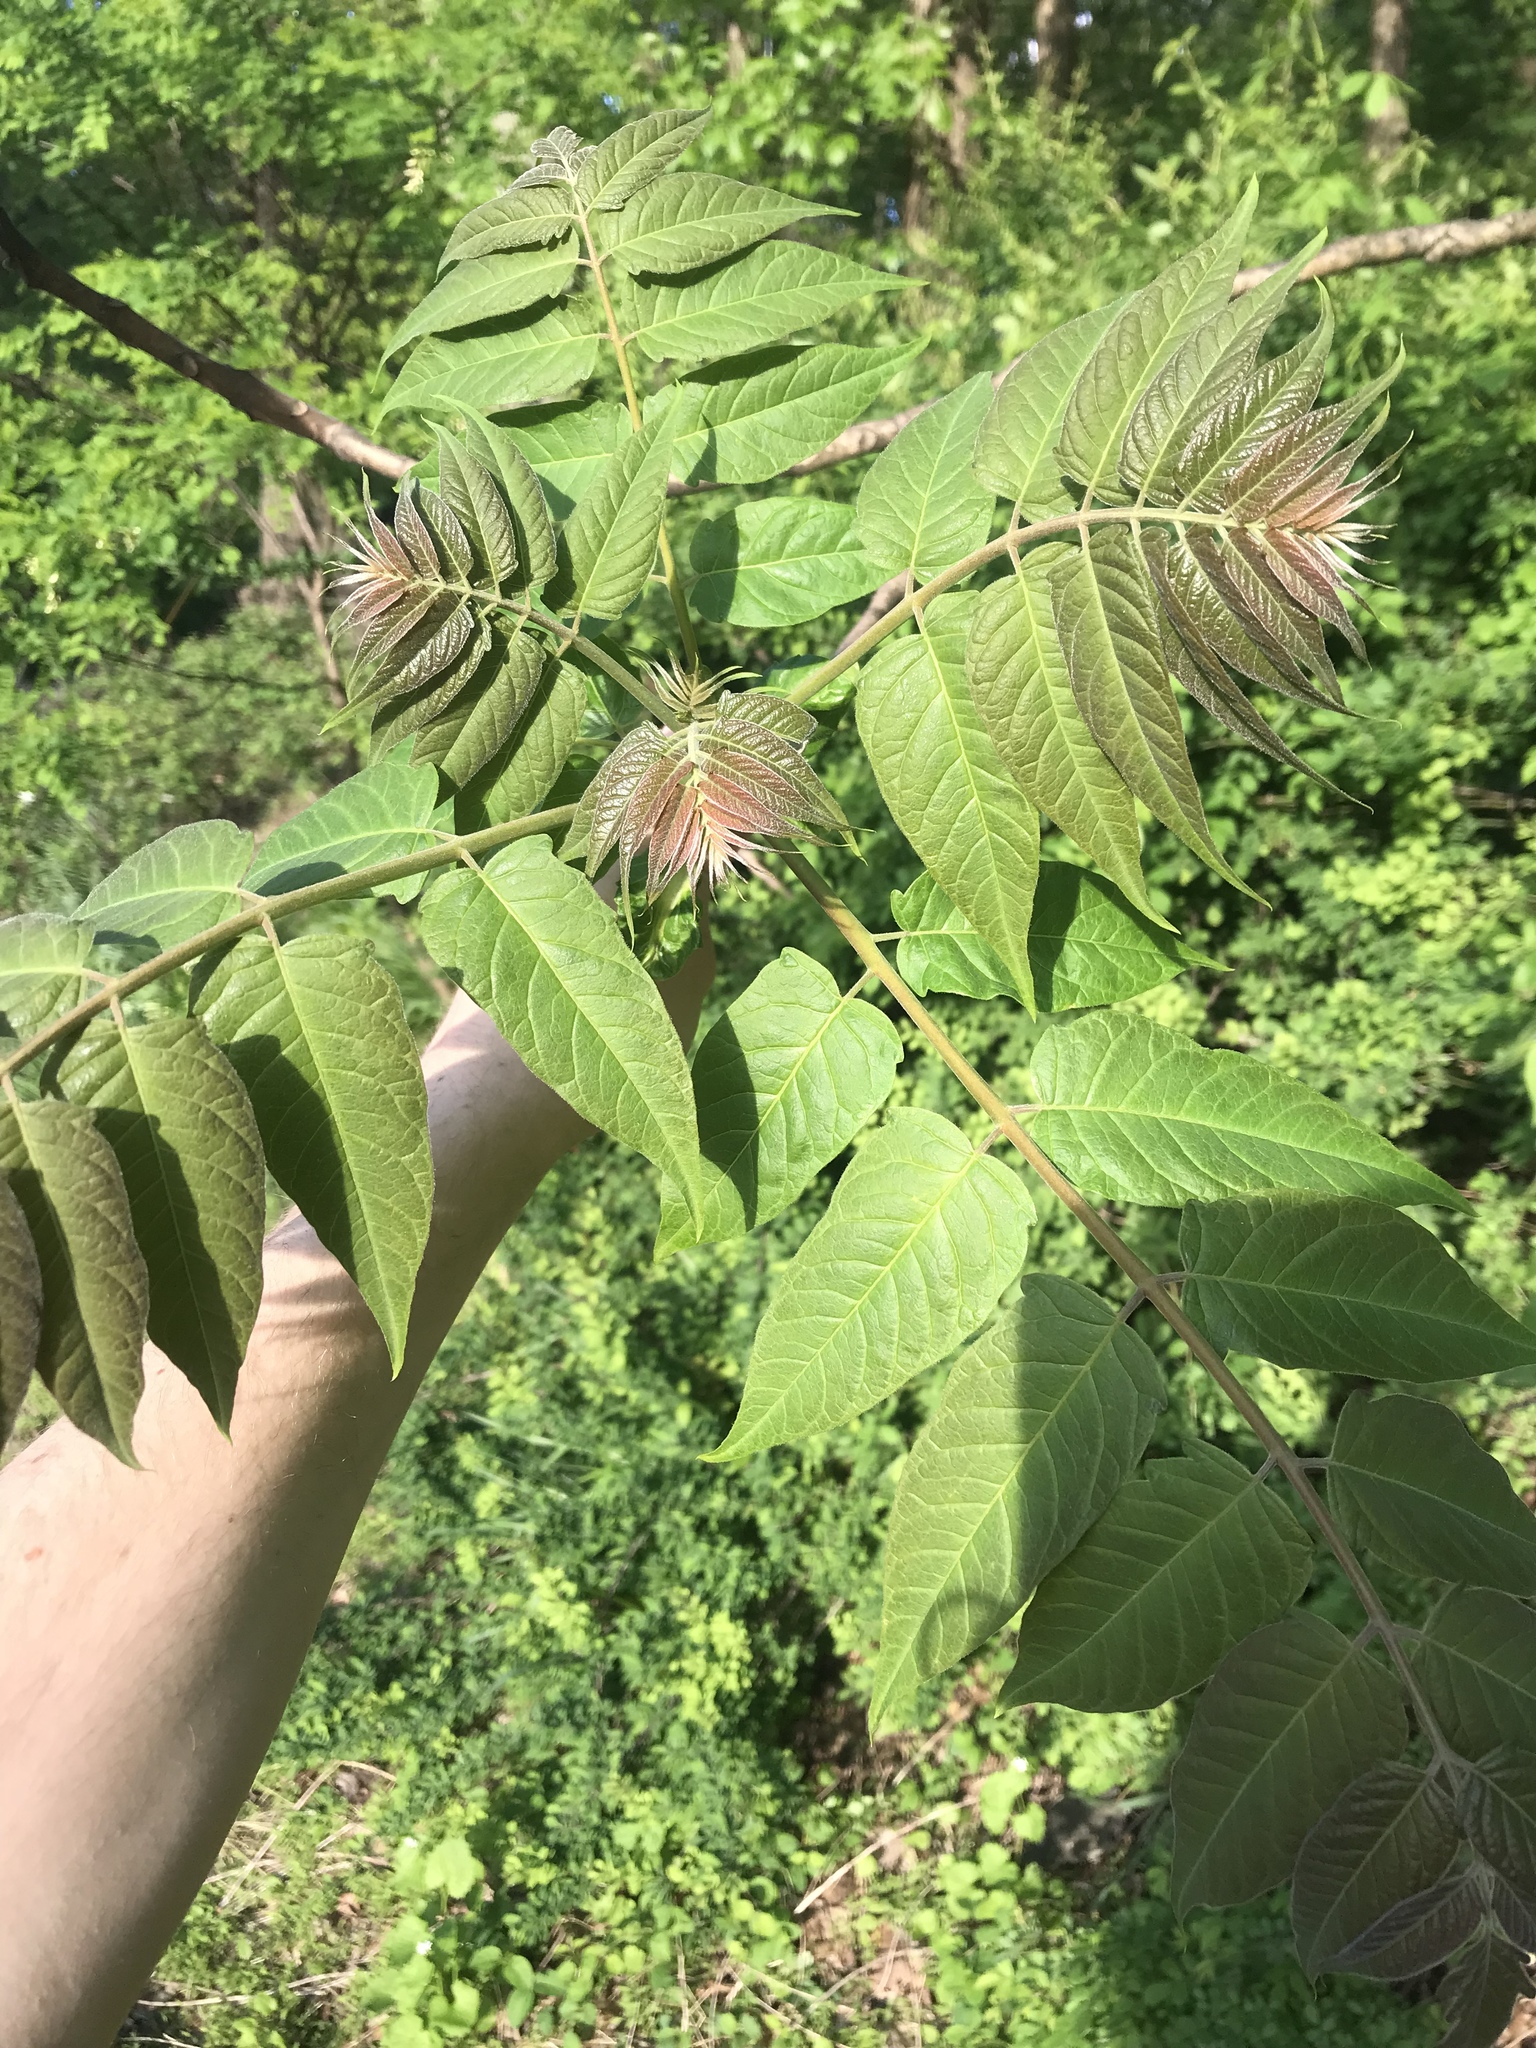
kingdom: Plantae
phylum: Tracheophyta
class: Magnoliopsida
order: Sapindales
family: Simaroubaceae
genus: Ailanthus
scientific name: Ailanthus altissima
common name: Tree-of-heaven
